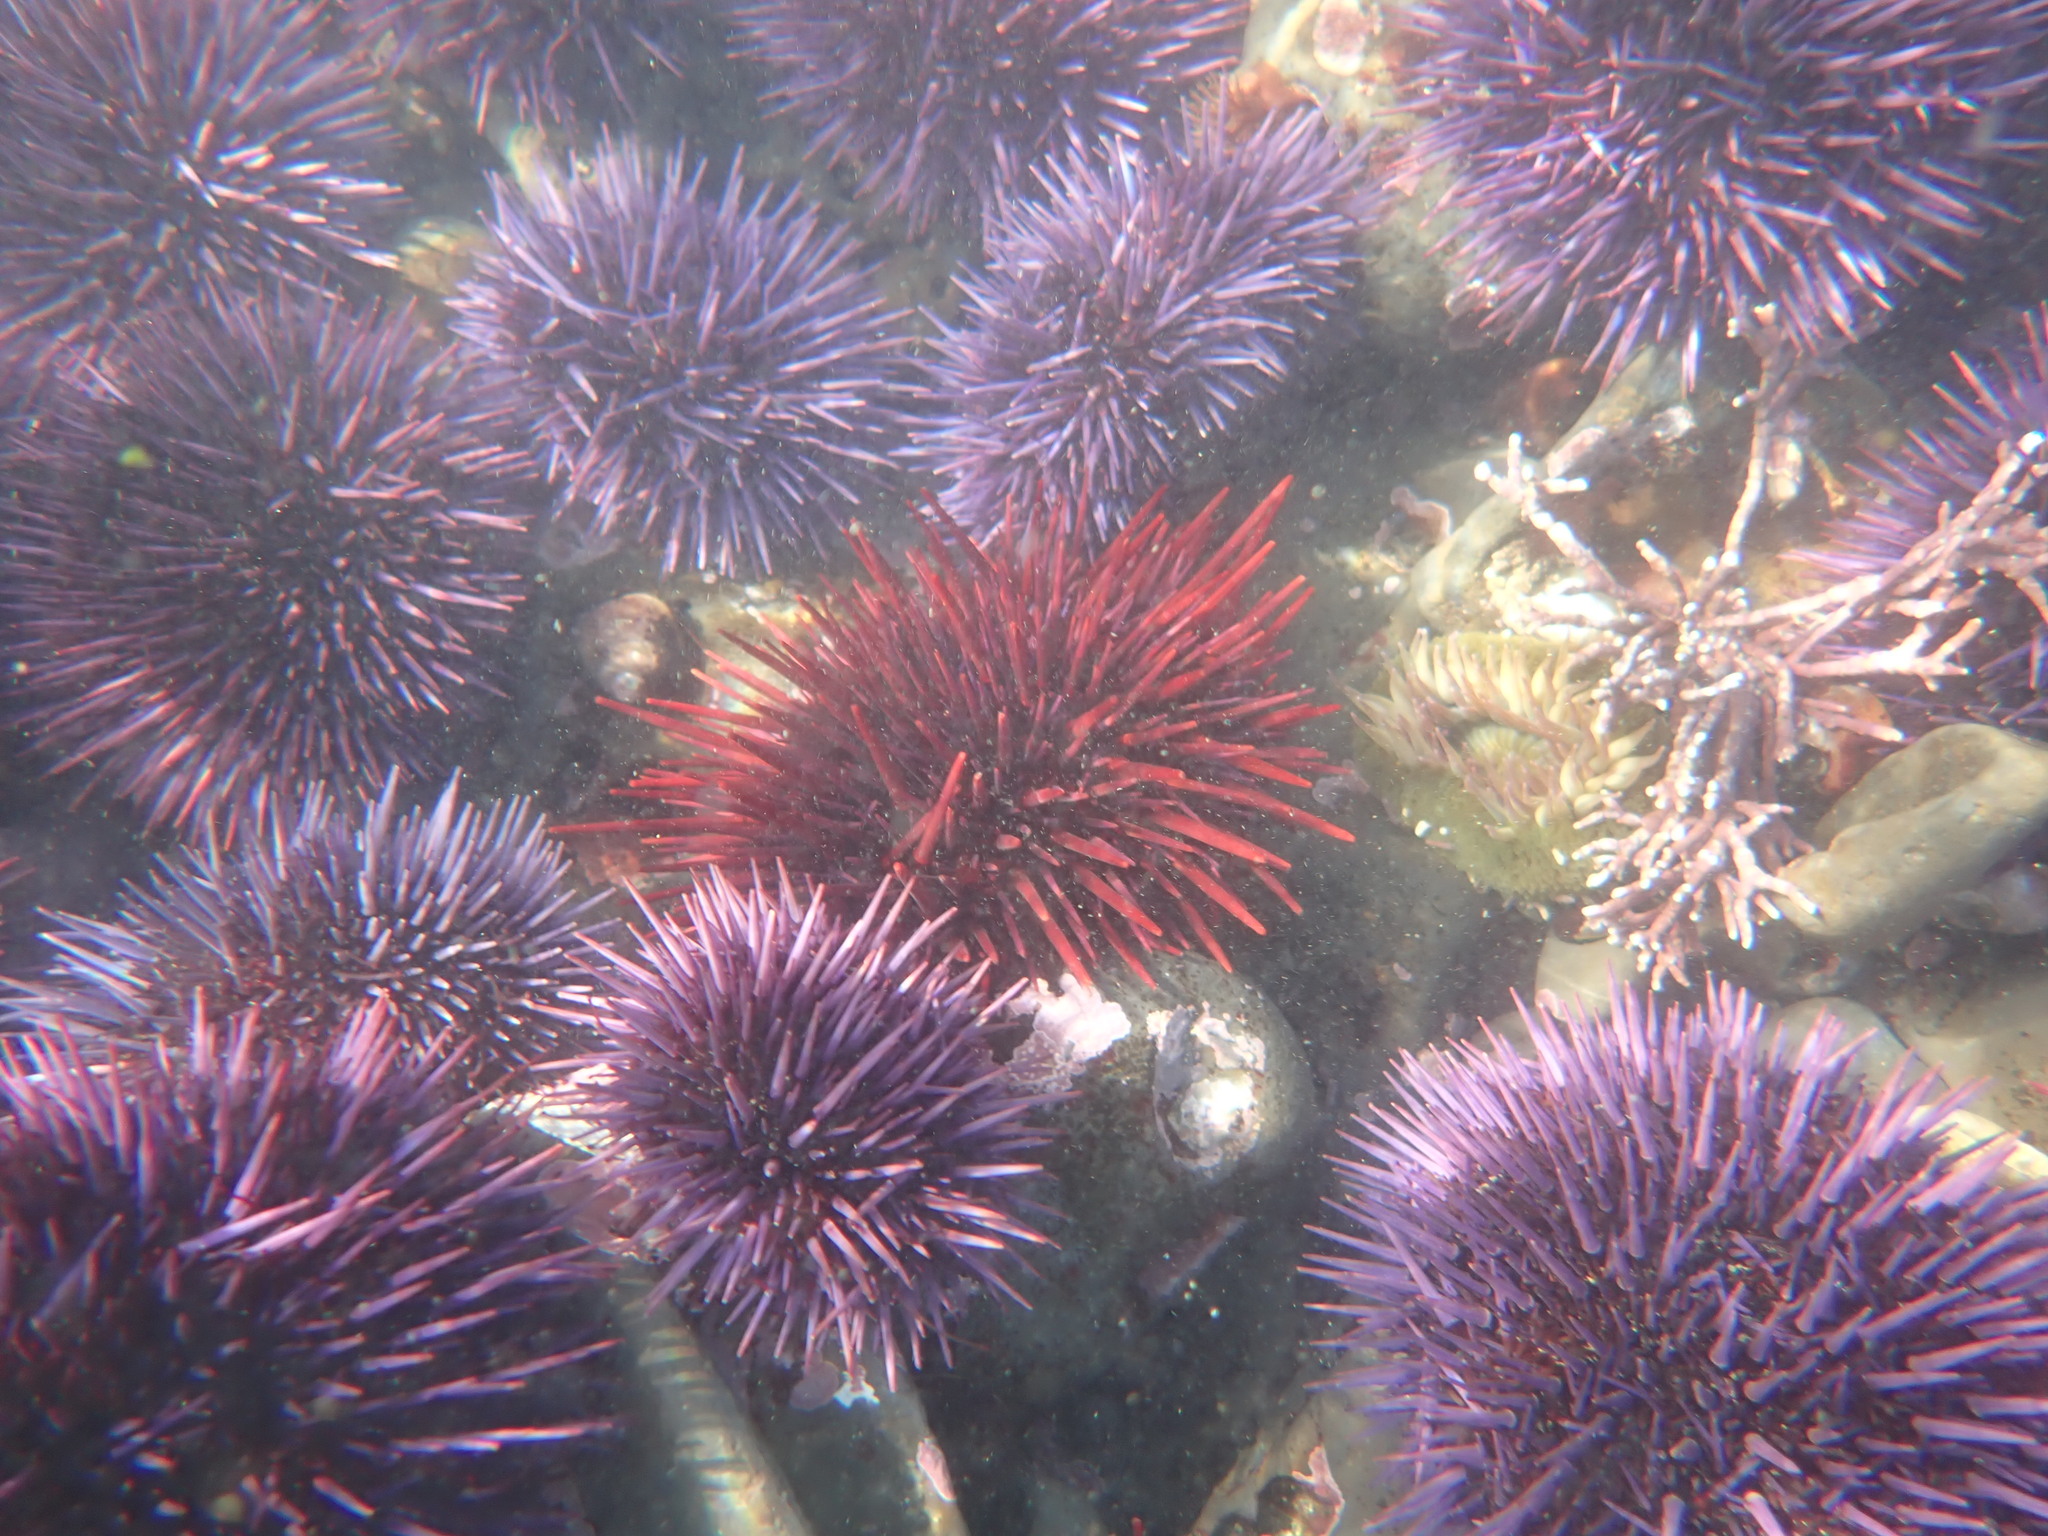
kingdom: Animalia
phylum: Echinodermata
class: Echinoidea
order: Camarodonta
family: Strongylocentrotidae
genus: Mesocentrotus
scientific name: Mesocentrotus franciscanus
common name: Red sea urchin
